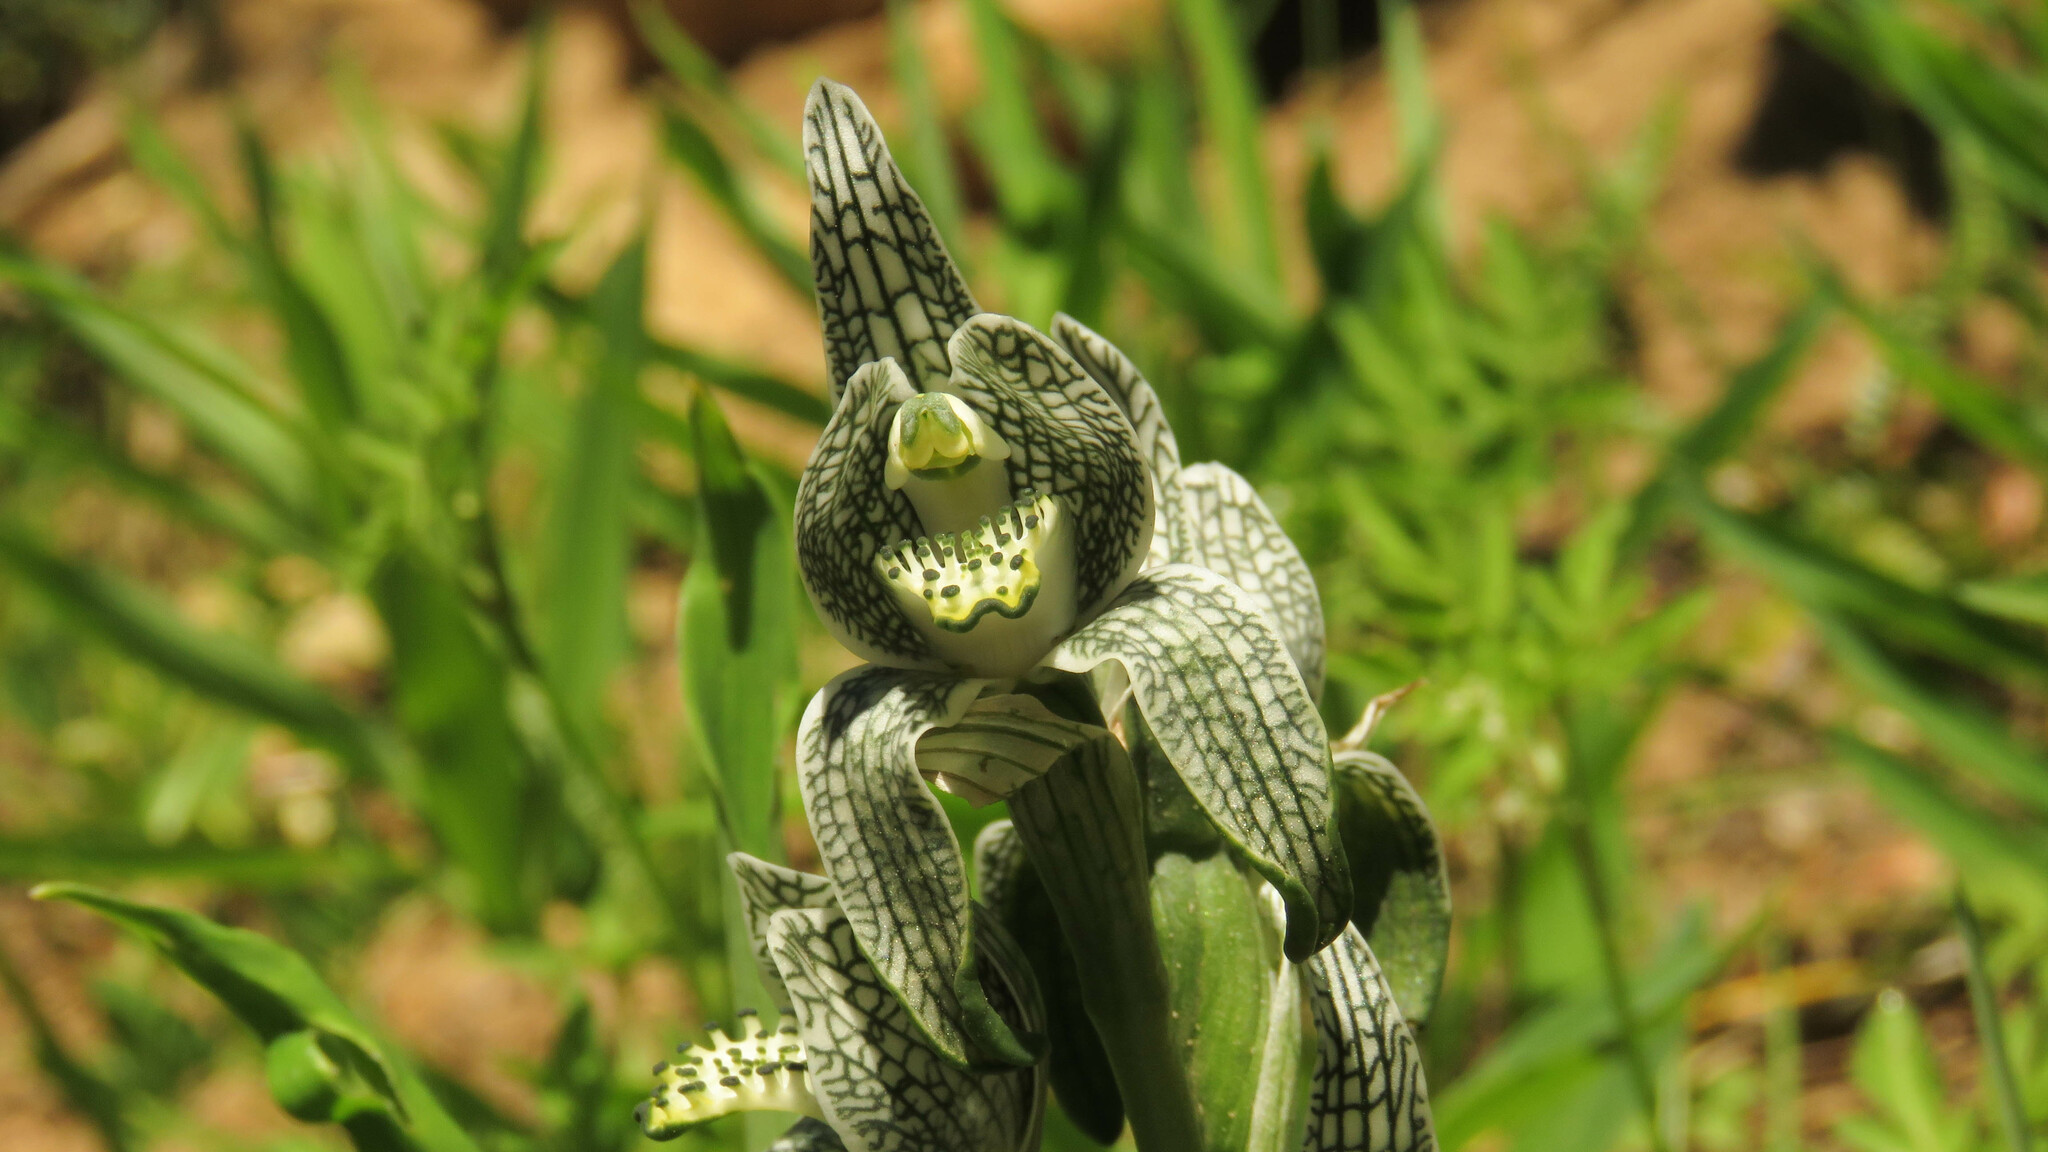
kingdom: Plantae
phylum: Tracheophyta
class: Liliopsida
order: Asparagales
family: Orchidaceae
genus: Chloraea
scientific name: Chloraea magellanica
